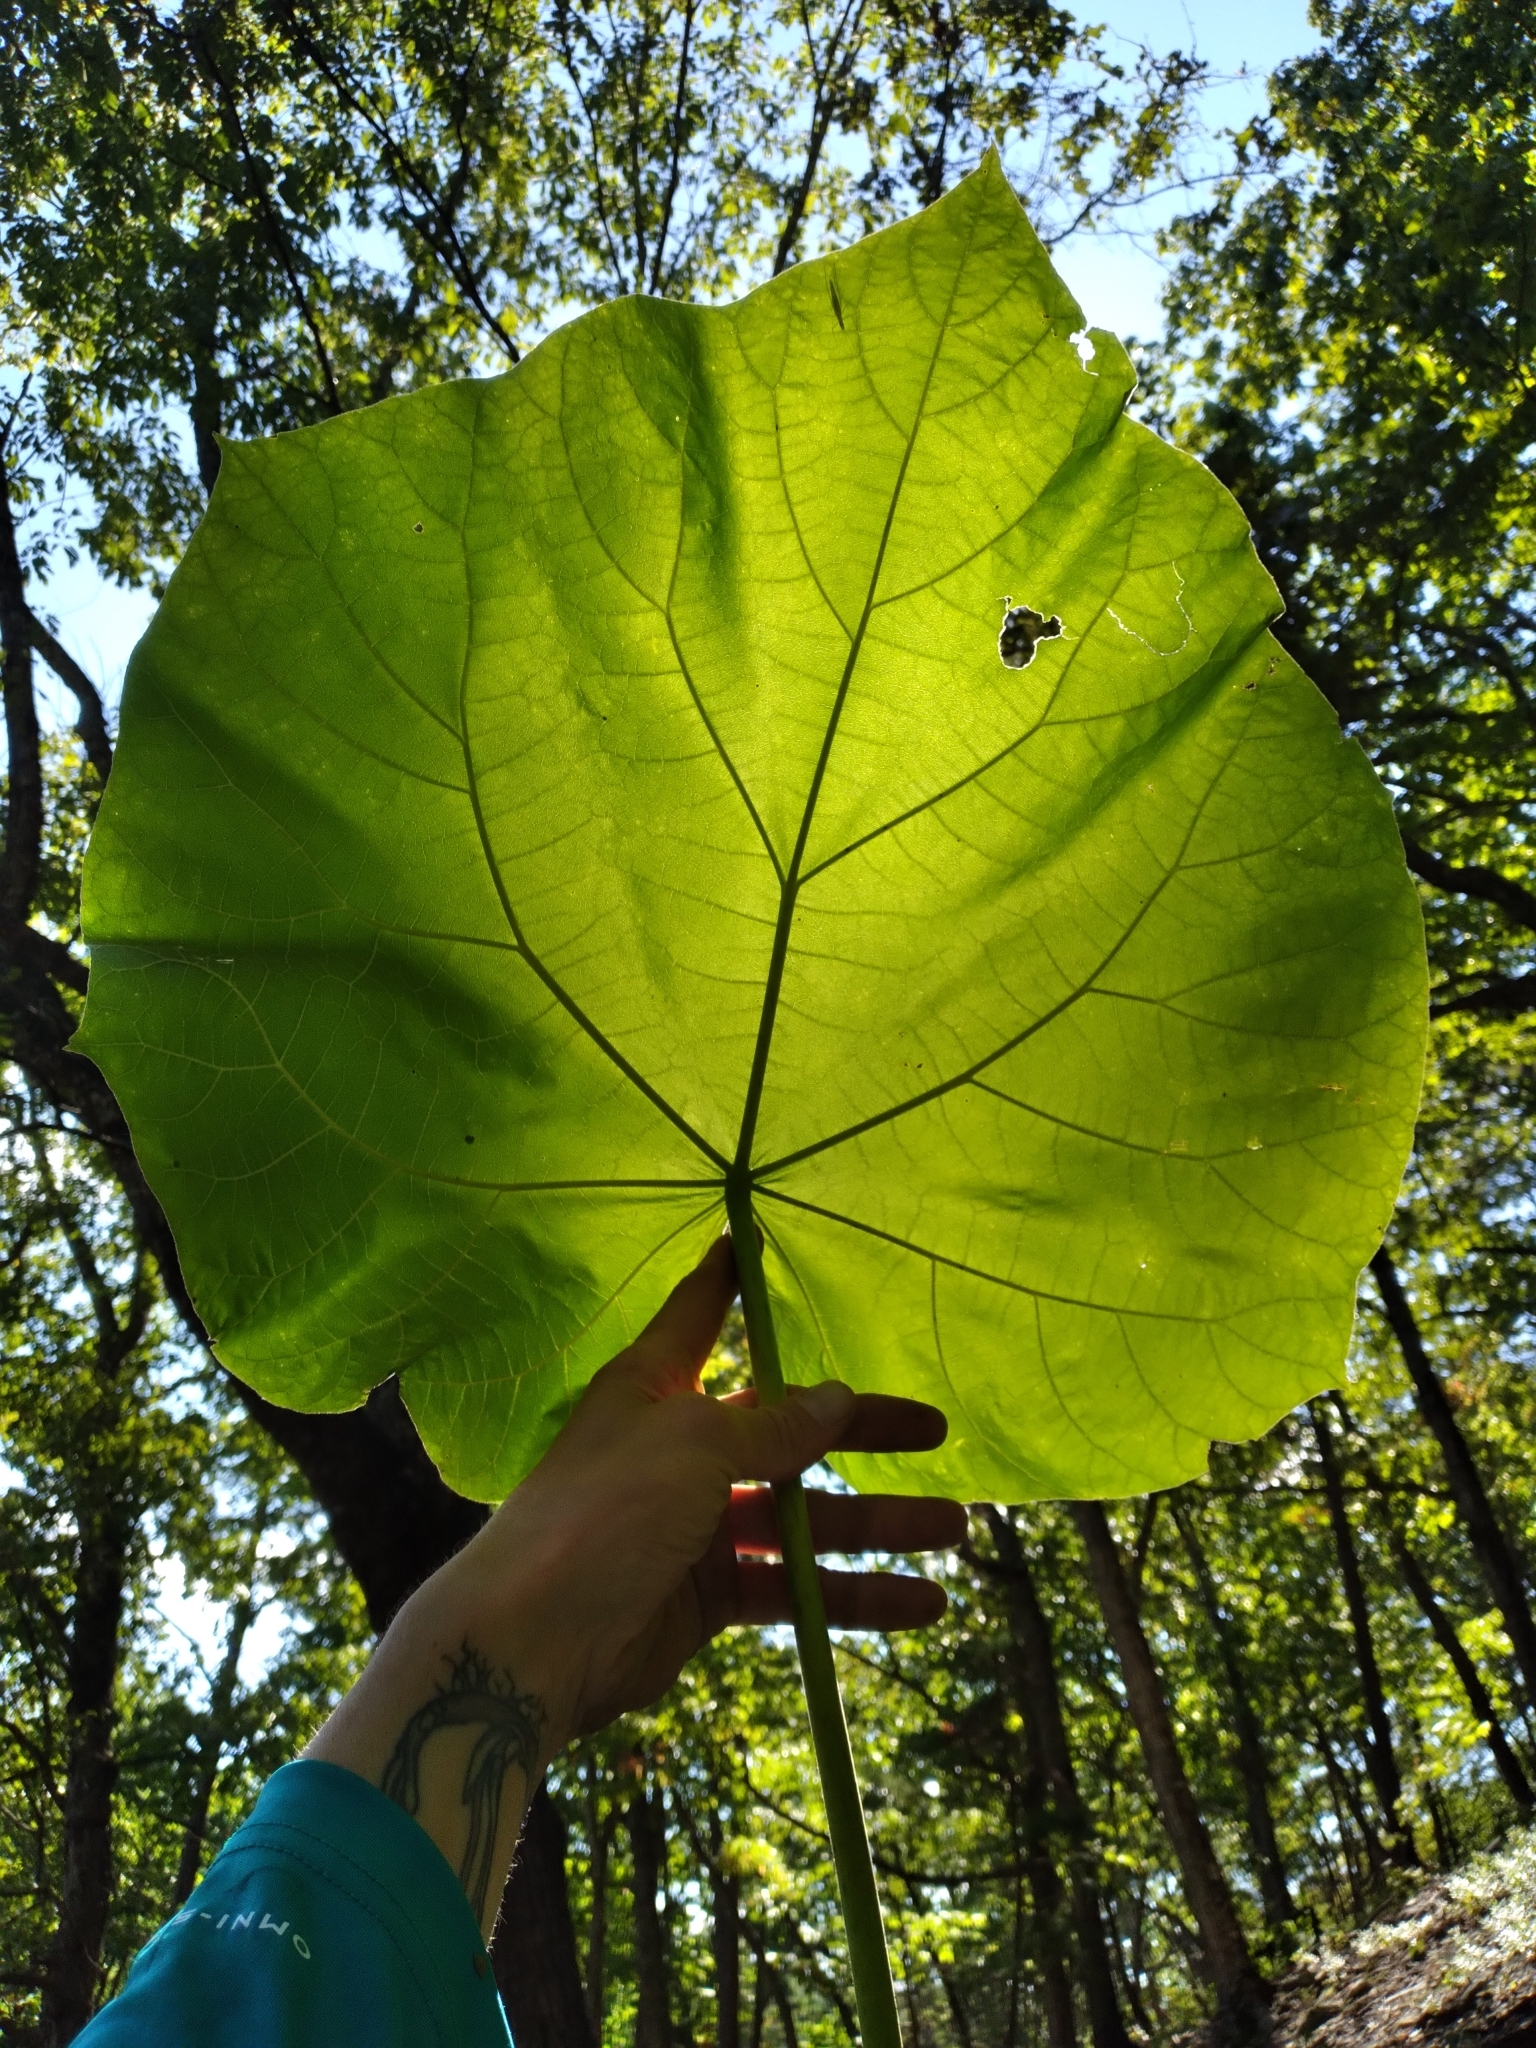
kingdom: Plantae
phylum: Tracheophyta
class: Magnoliopsida
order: Lamiales
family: Paulowniaceae
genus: Paulownia
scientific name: Paulownia tomentosa
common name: Foxglove-tree
